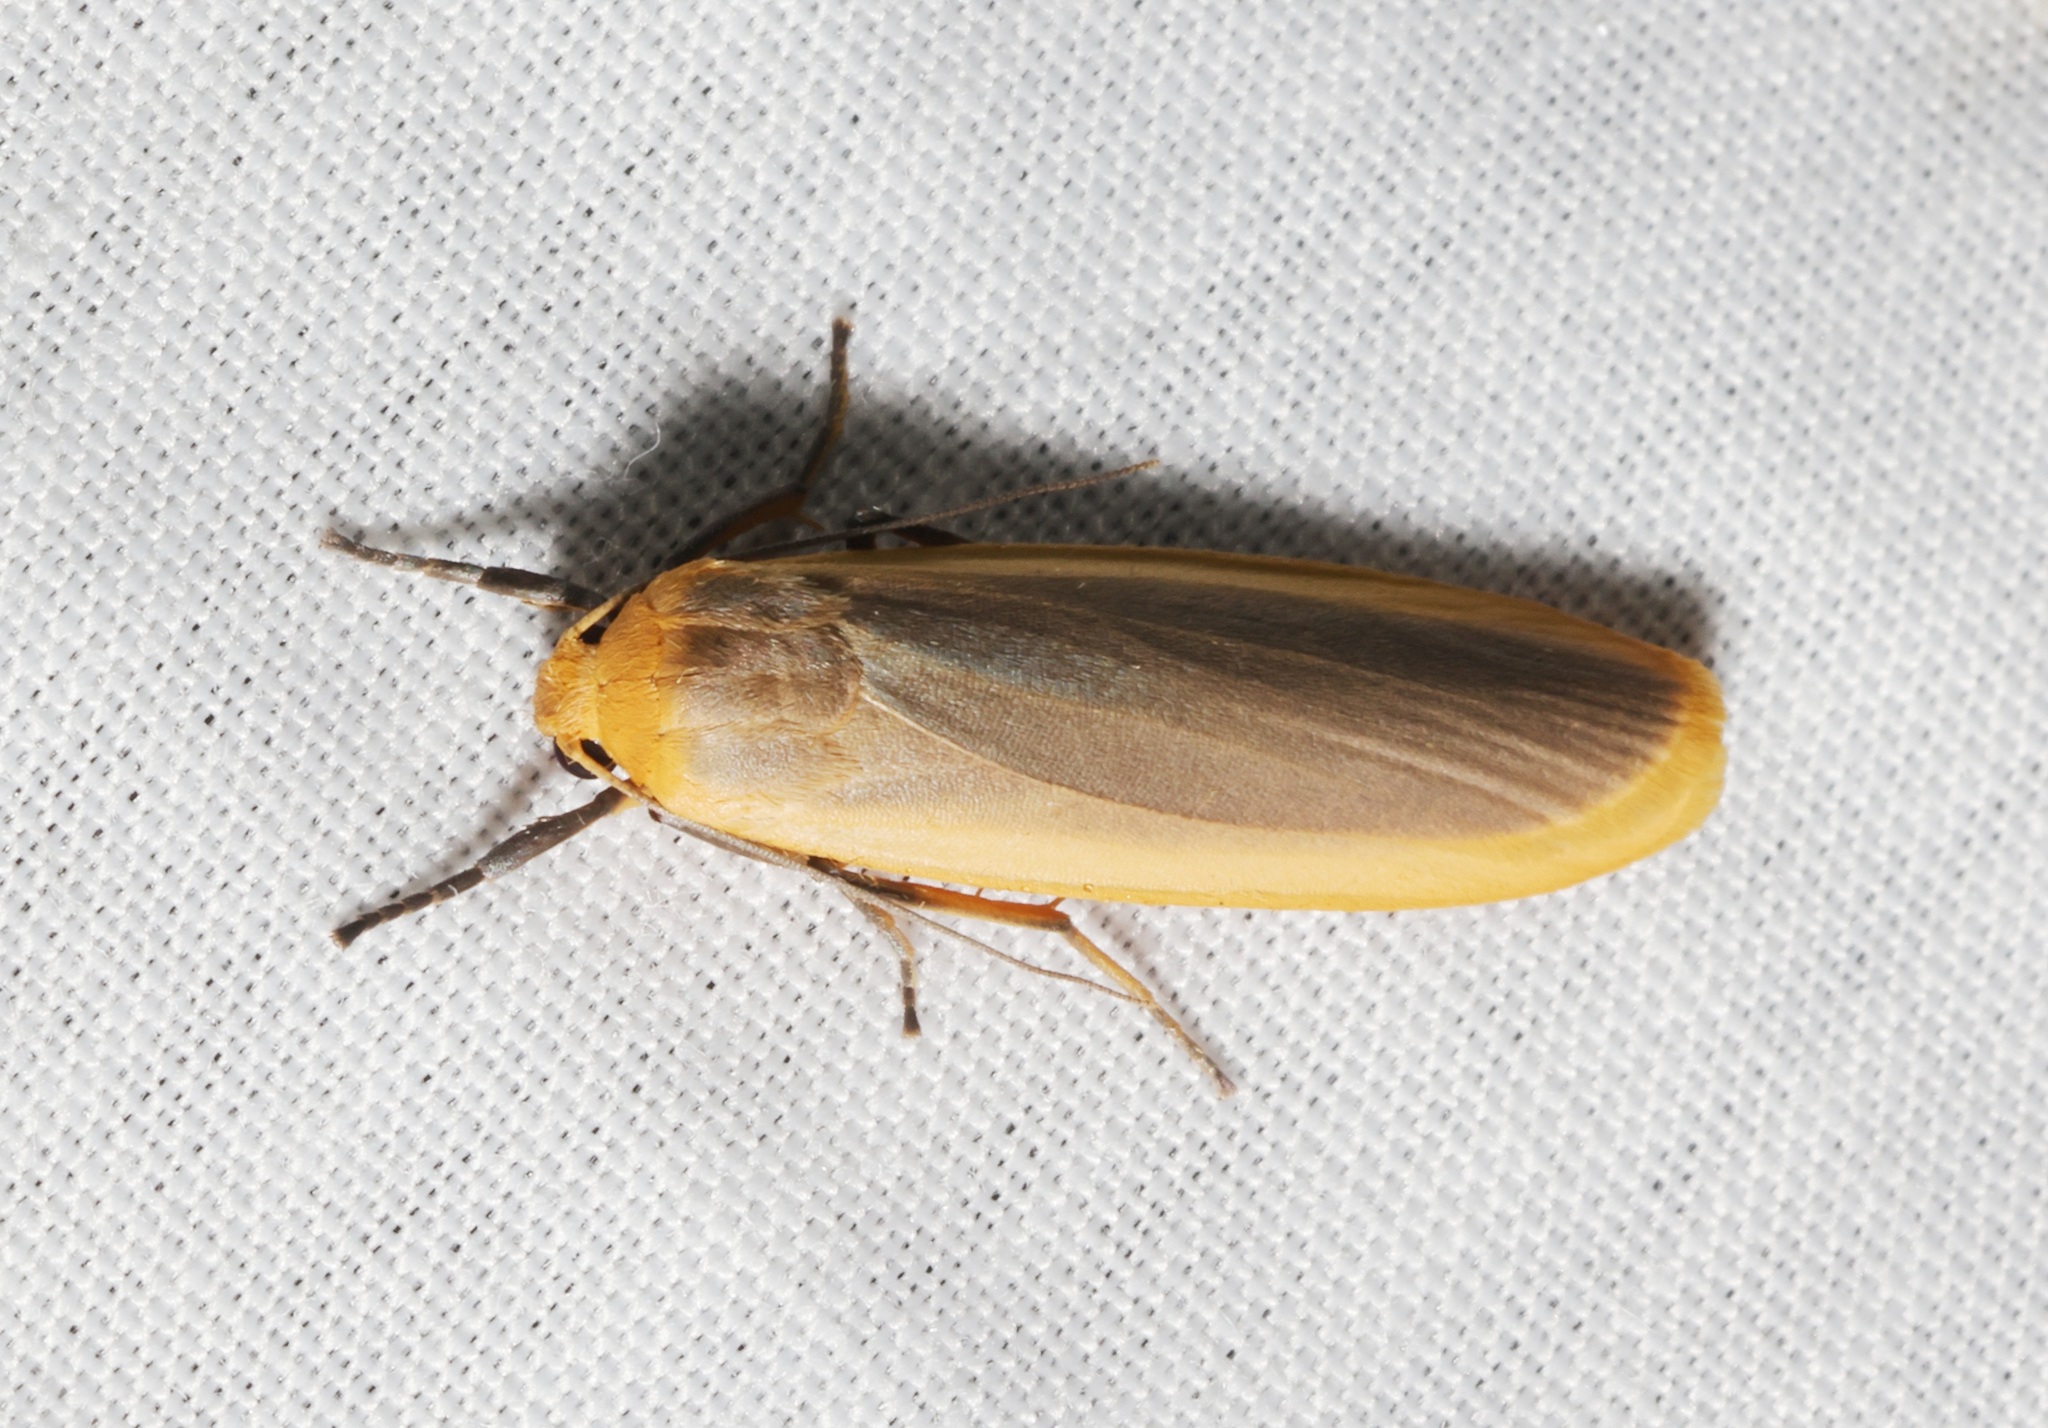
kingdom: Animalia
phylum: Arthropoda
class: Insecta
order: Lepidoptera
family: Erebidae
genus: Brunia
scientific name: Brunia antica
